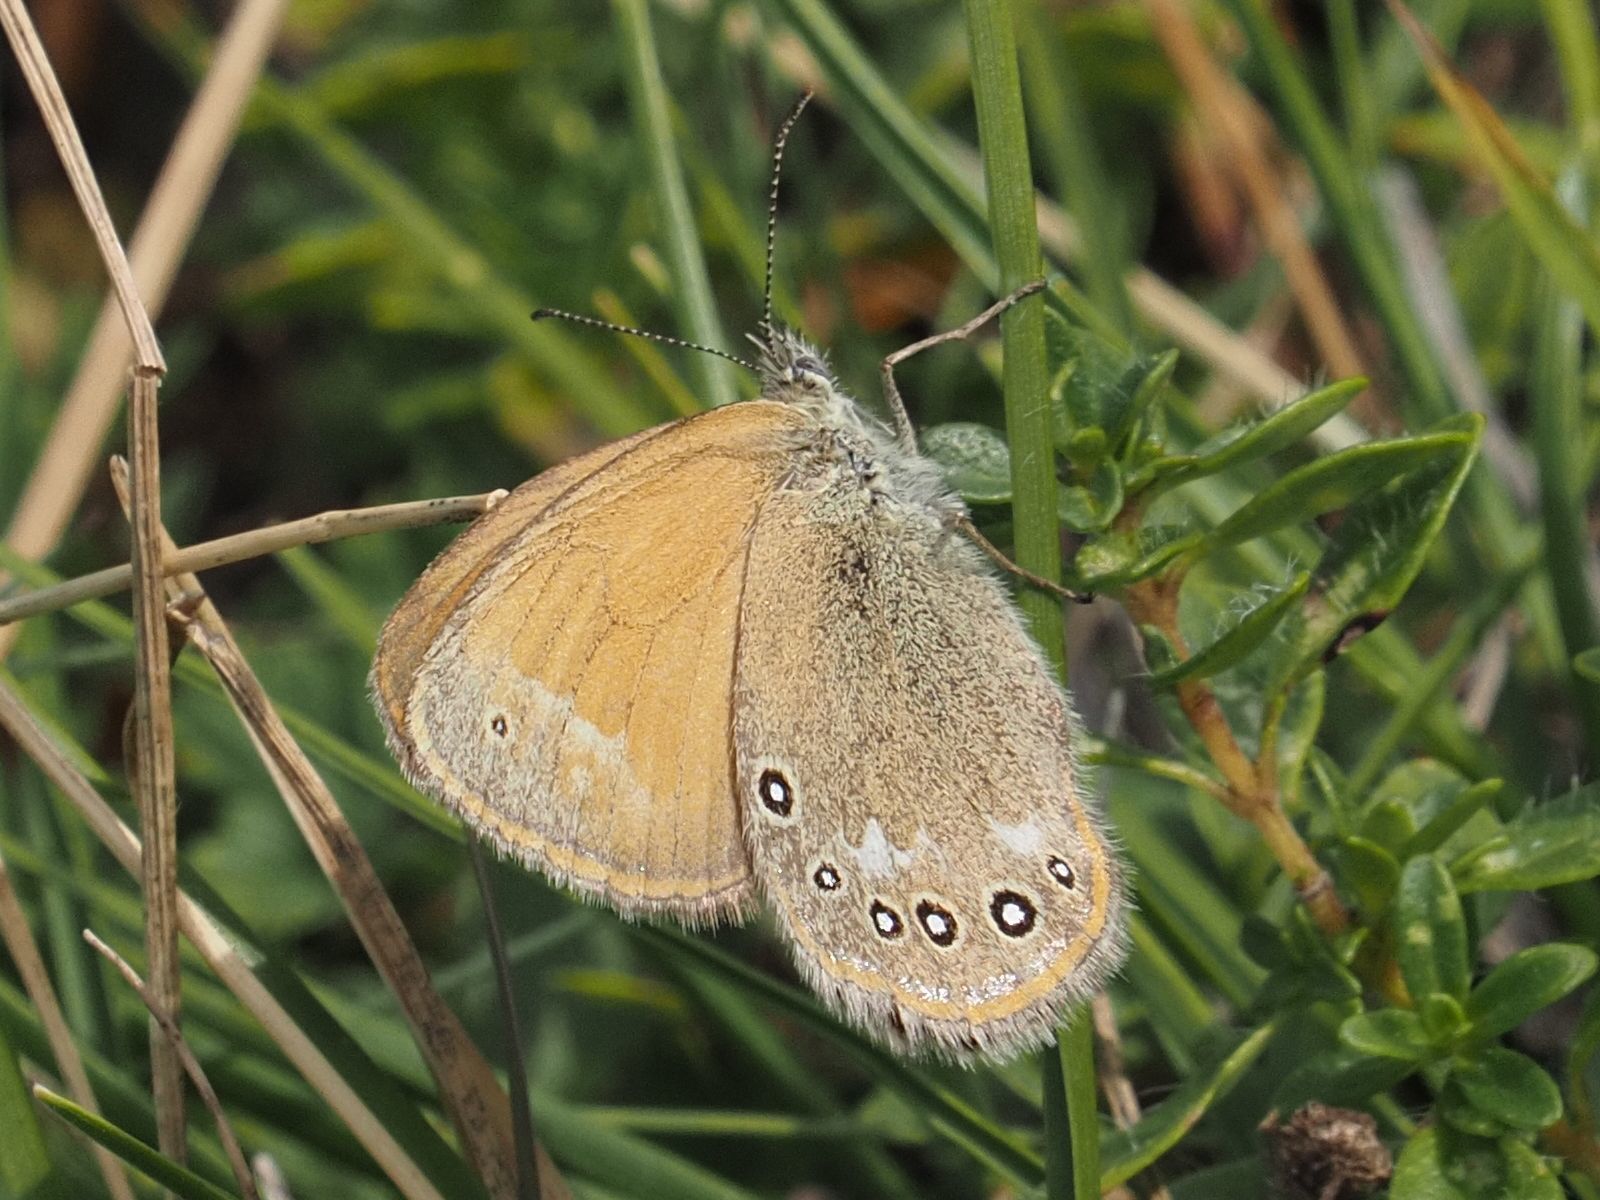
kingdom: Animalia
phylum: Arthropoda
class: Insecta
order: Lepidoptera
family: Nymphalidae
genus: Coenonympha
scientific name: Coenonympha iphis
